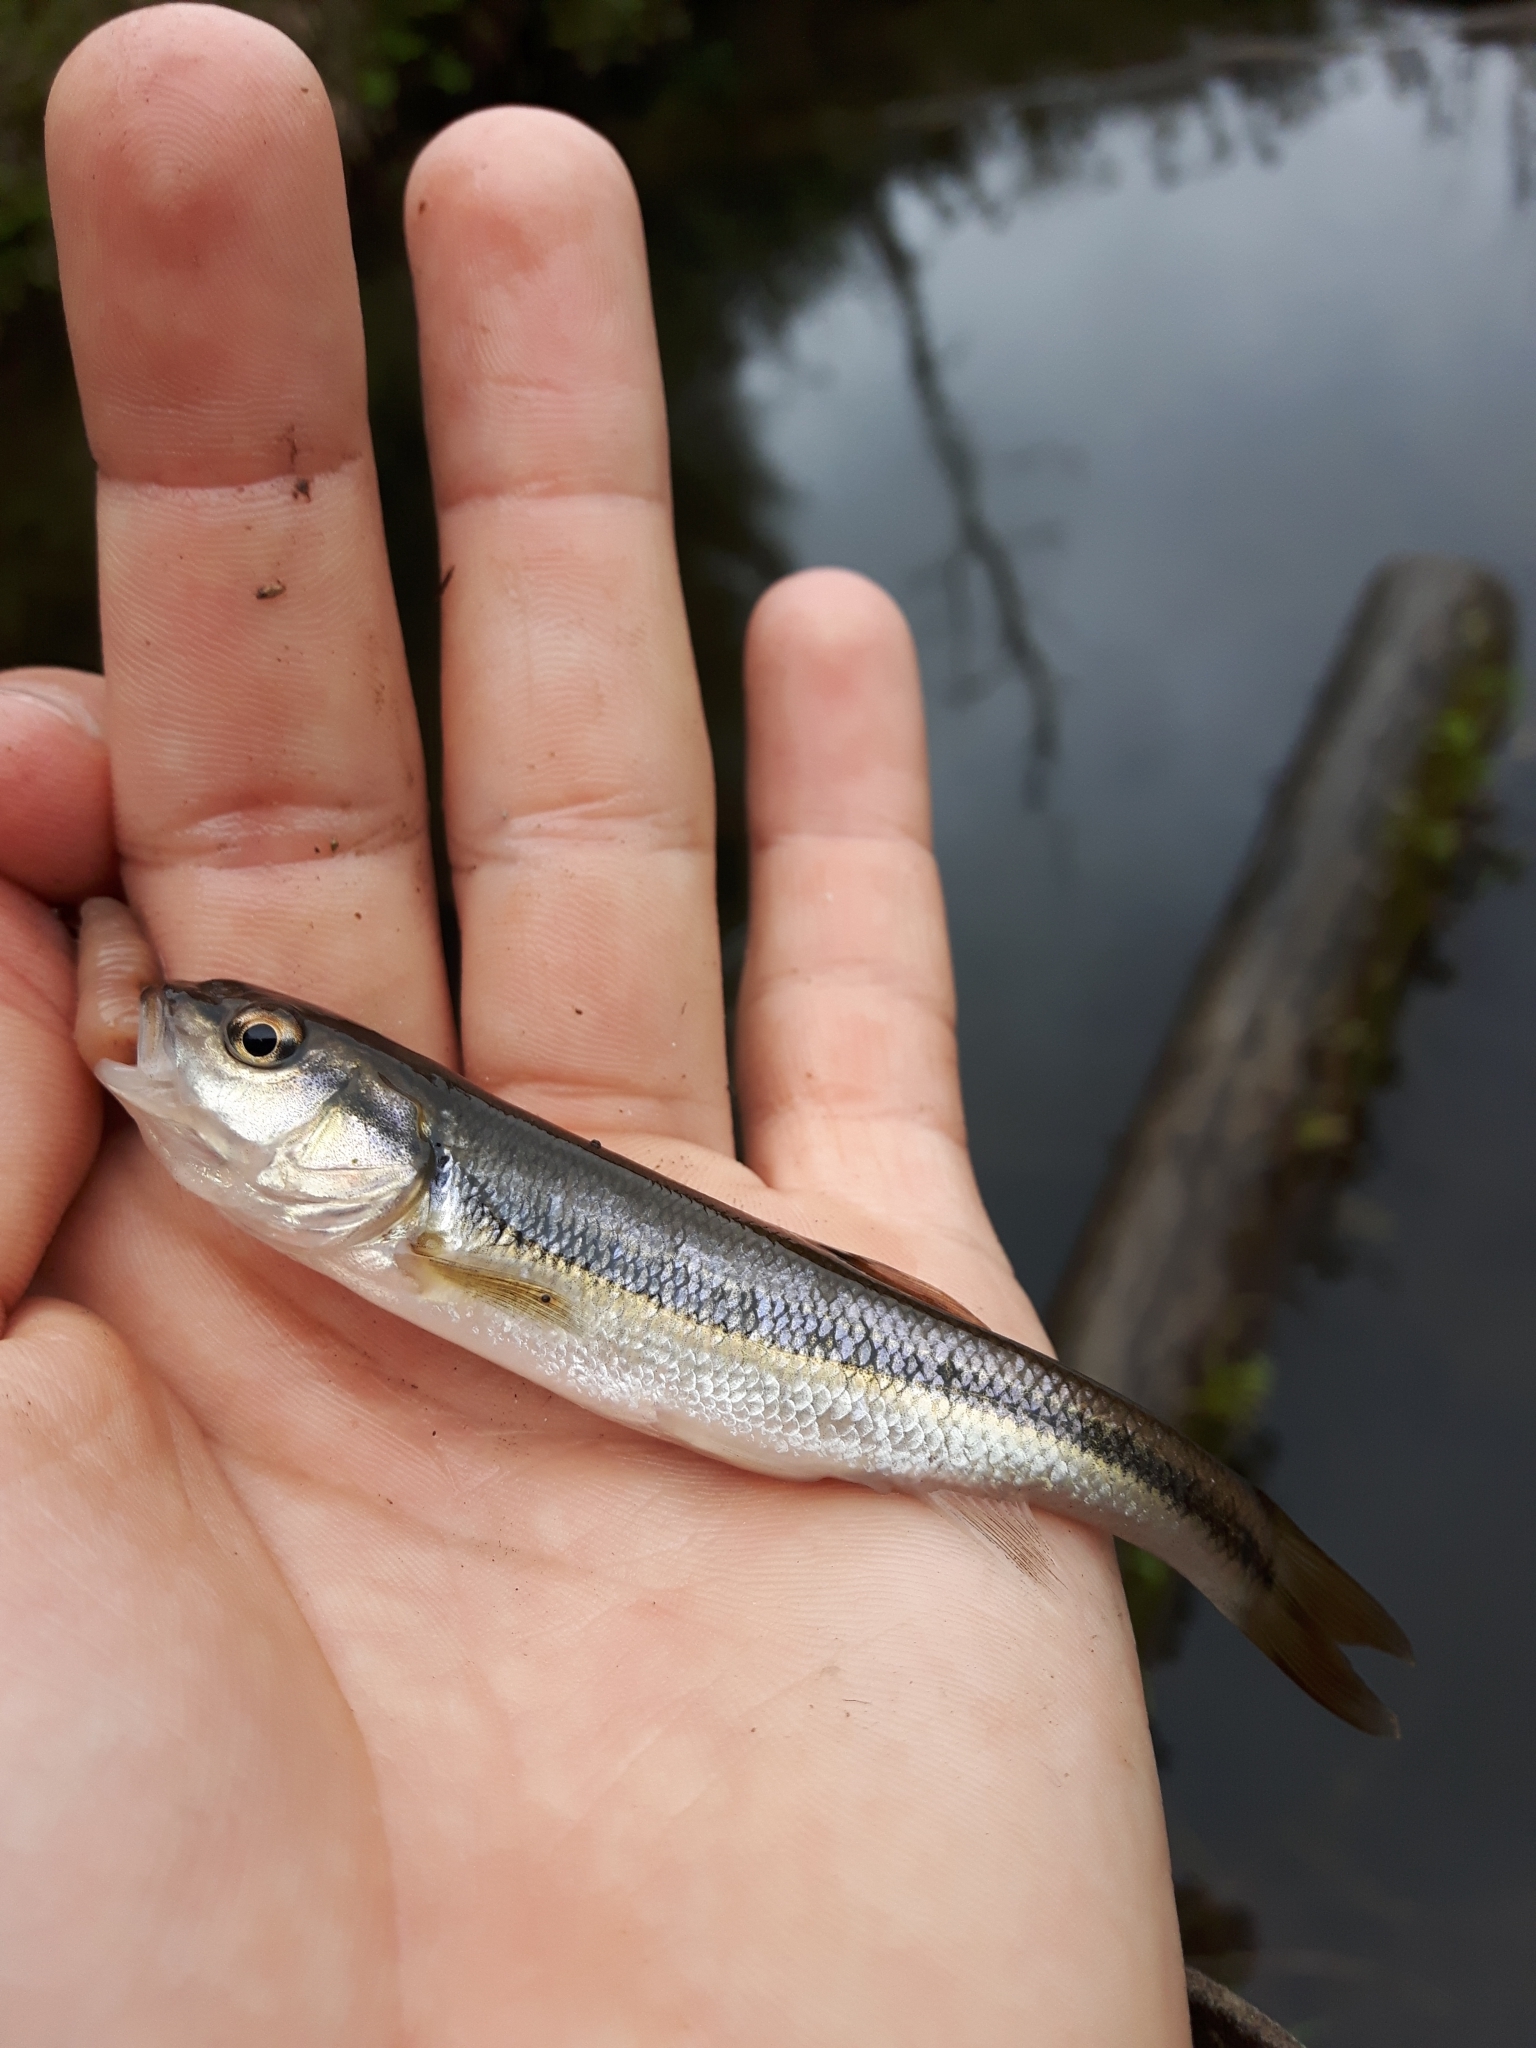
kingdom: Animalia
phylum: Chordata
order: Cypriniformes
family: Cyprinidae
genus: Semotilus
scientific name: Semotilus atromaculatus
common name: Creek chub
